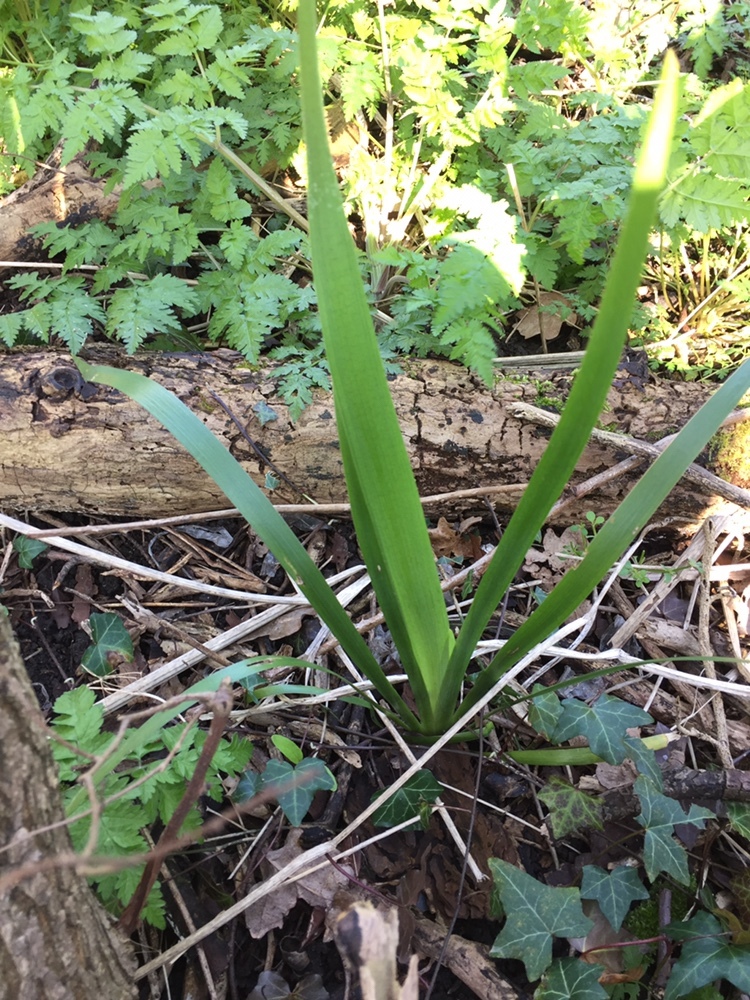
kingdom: Plantae
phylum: Tracheophyta
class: Liliopsida
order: Asparagales
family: Iridaceae
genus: Iris
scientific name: Iris foetidissima
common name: Stinking iris
